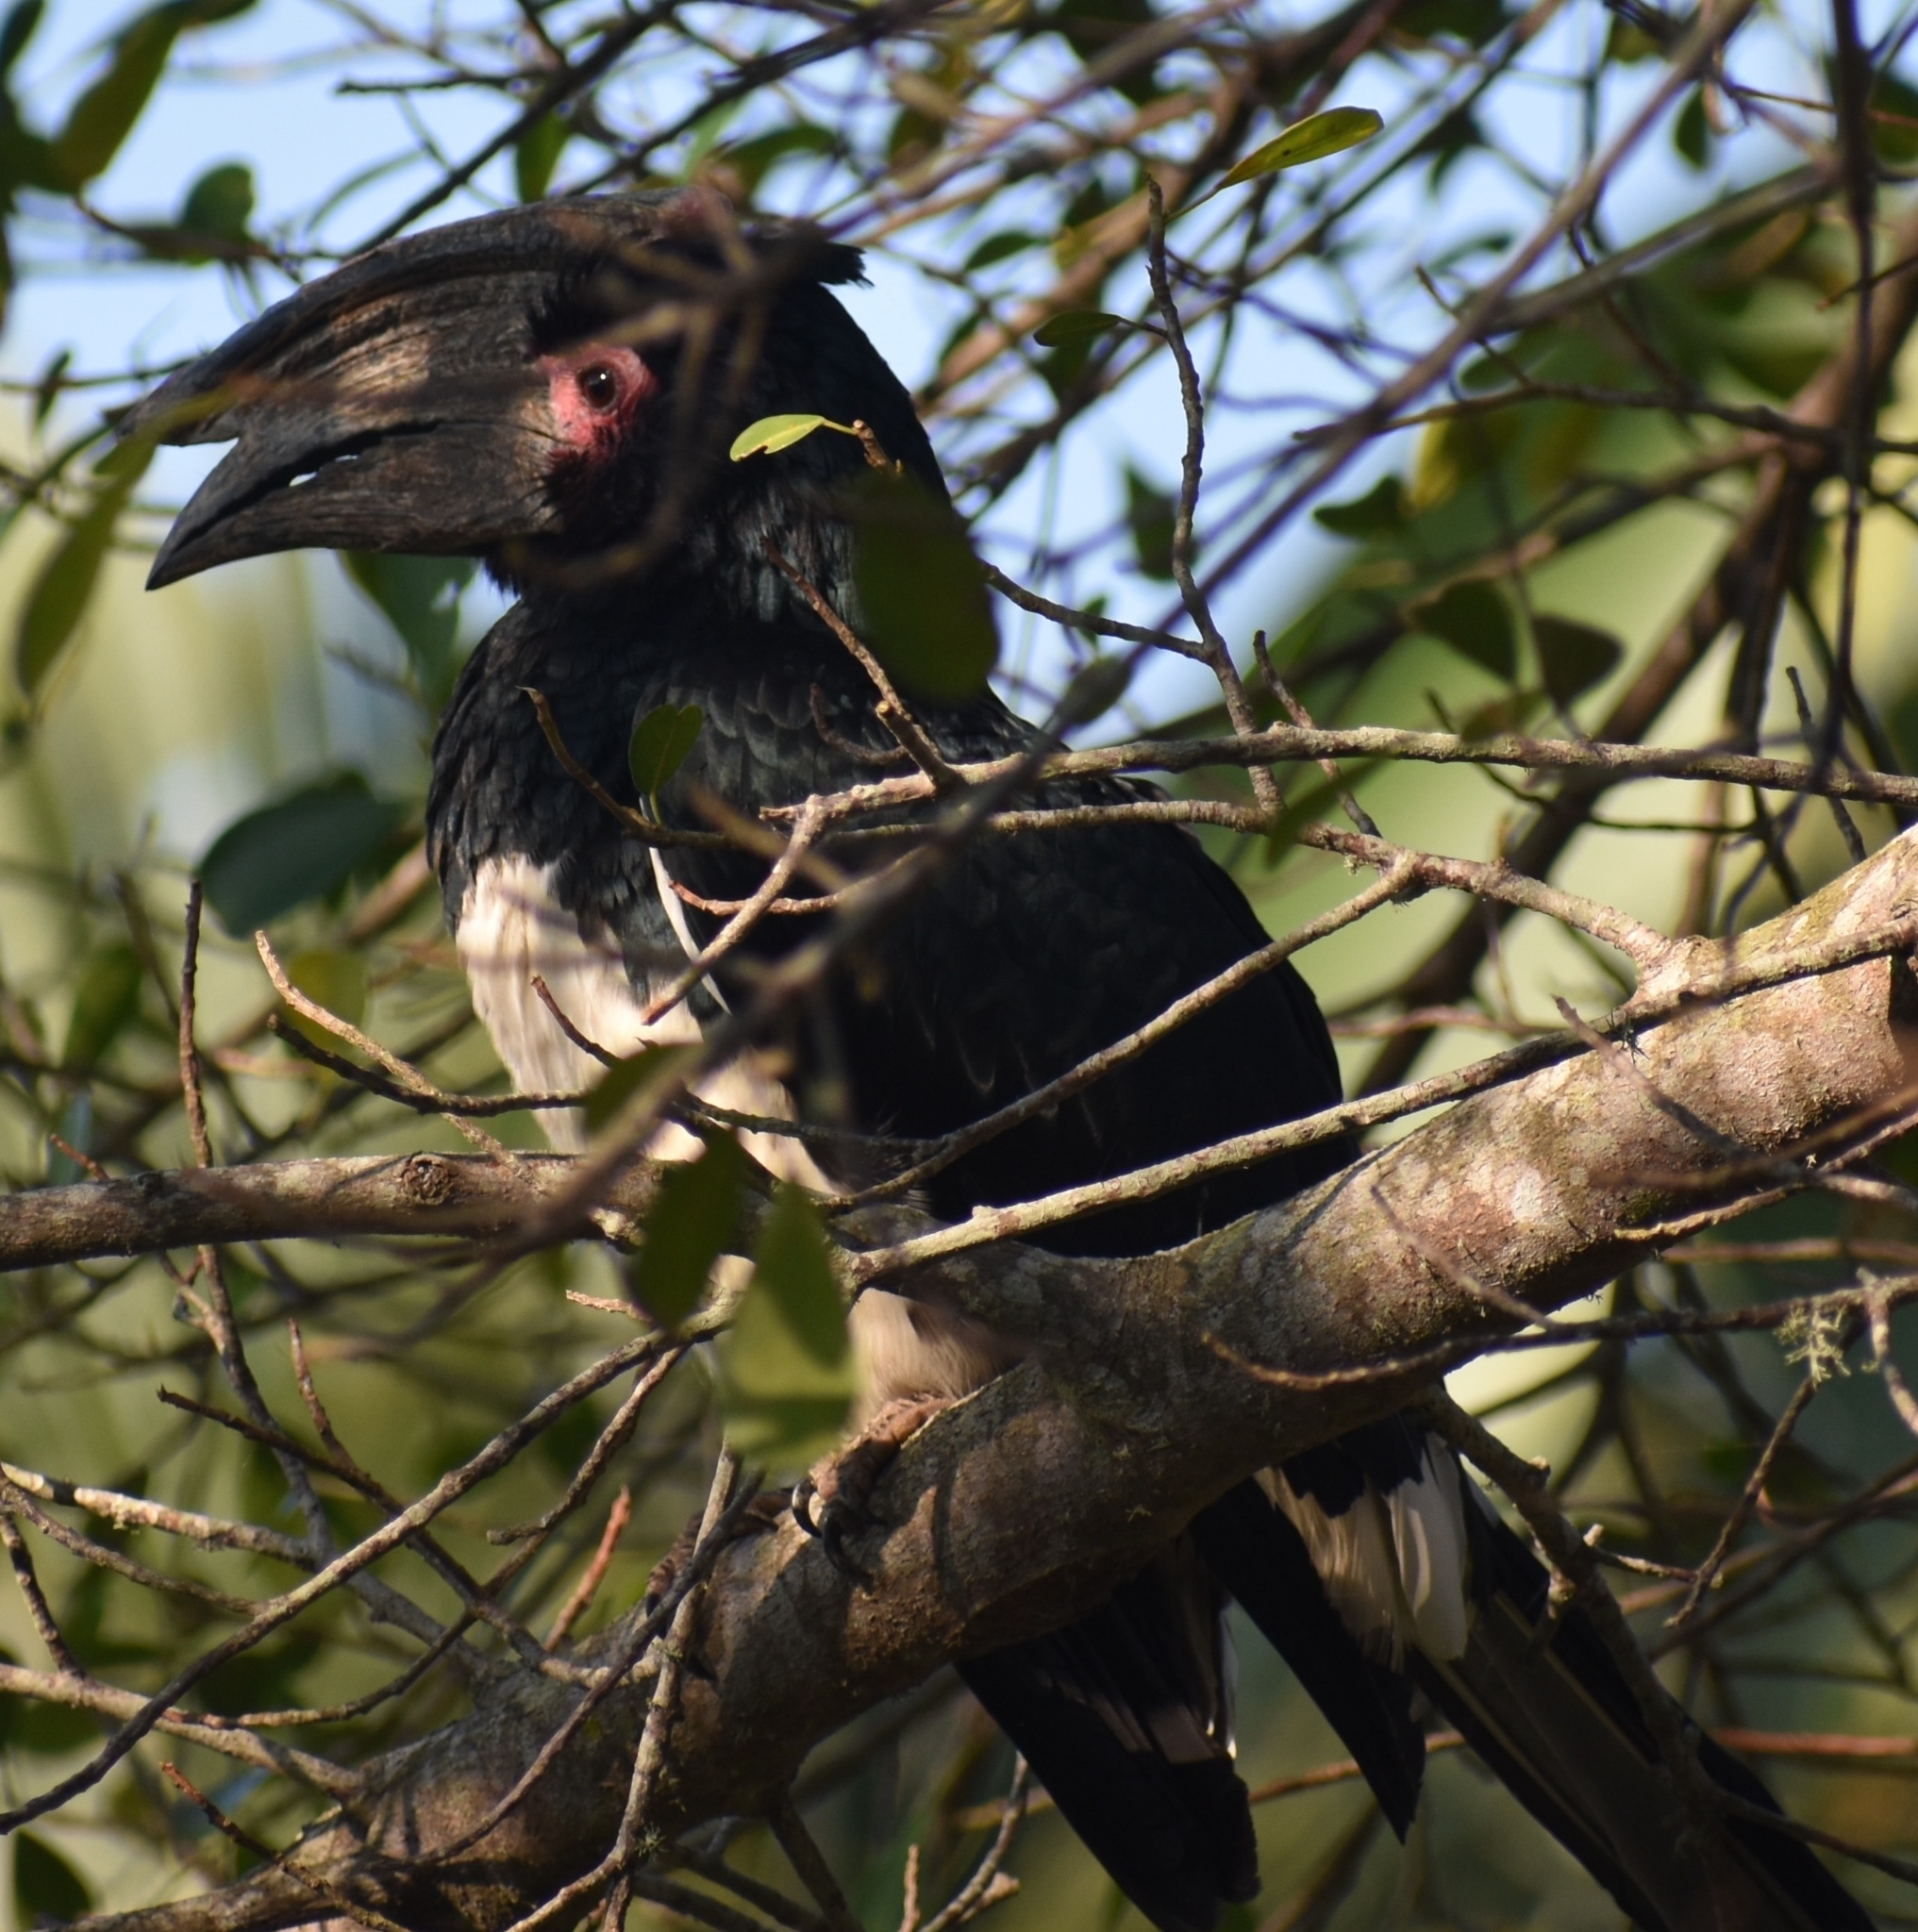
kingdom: Animalia
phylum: Chordata
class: Aves
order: Bucerotiformes
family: Bucerotidae
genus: Bycanistes
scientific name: Bycanistes bucinator
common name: Trumpeter hornbill
